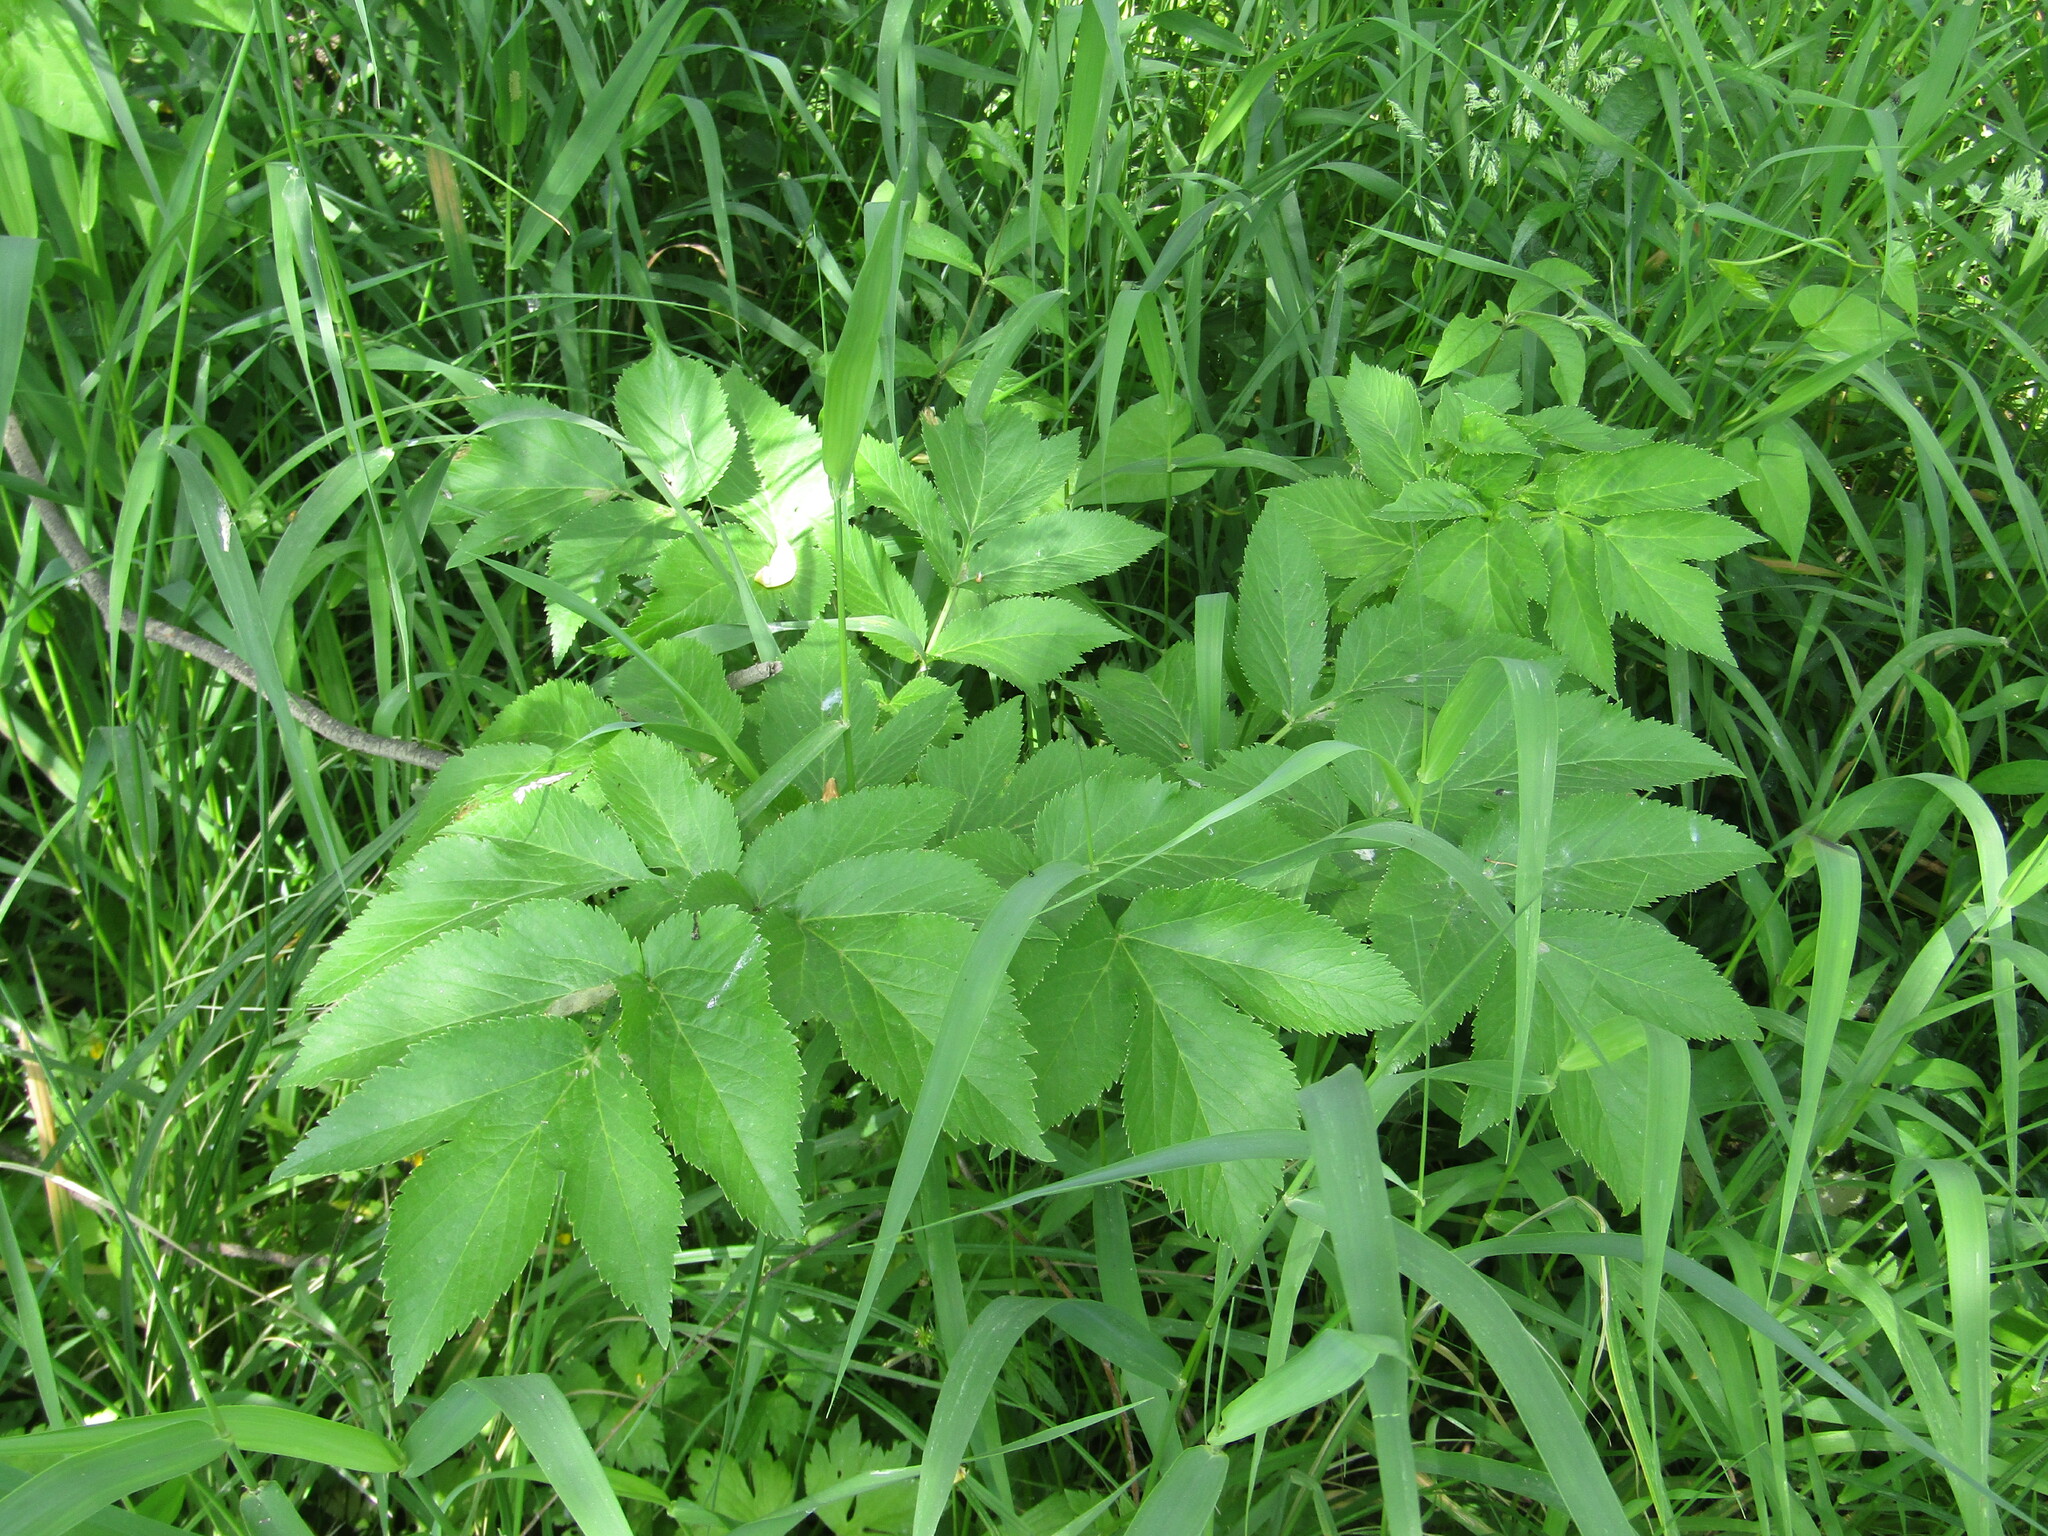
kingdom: Plantae
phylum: Tracheophyta
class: Magnoliopsida
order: Apiales
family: Apiaceae
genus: Angelica
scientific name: Angelica archangelica
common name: Garden angelica
